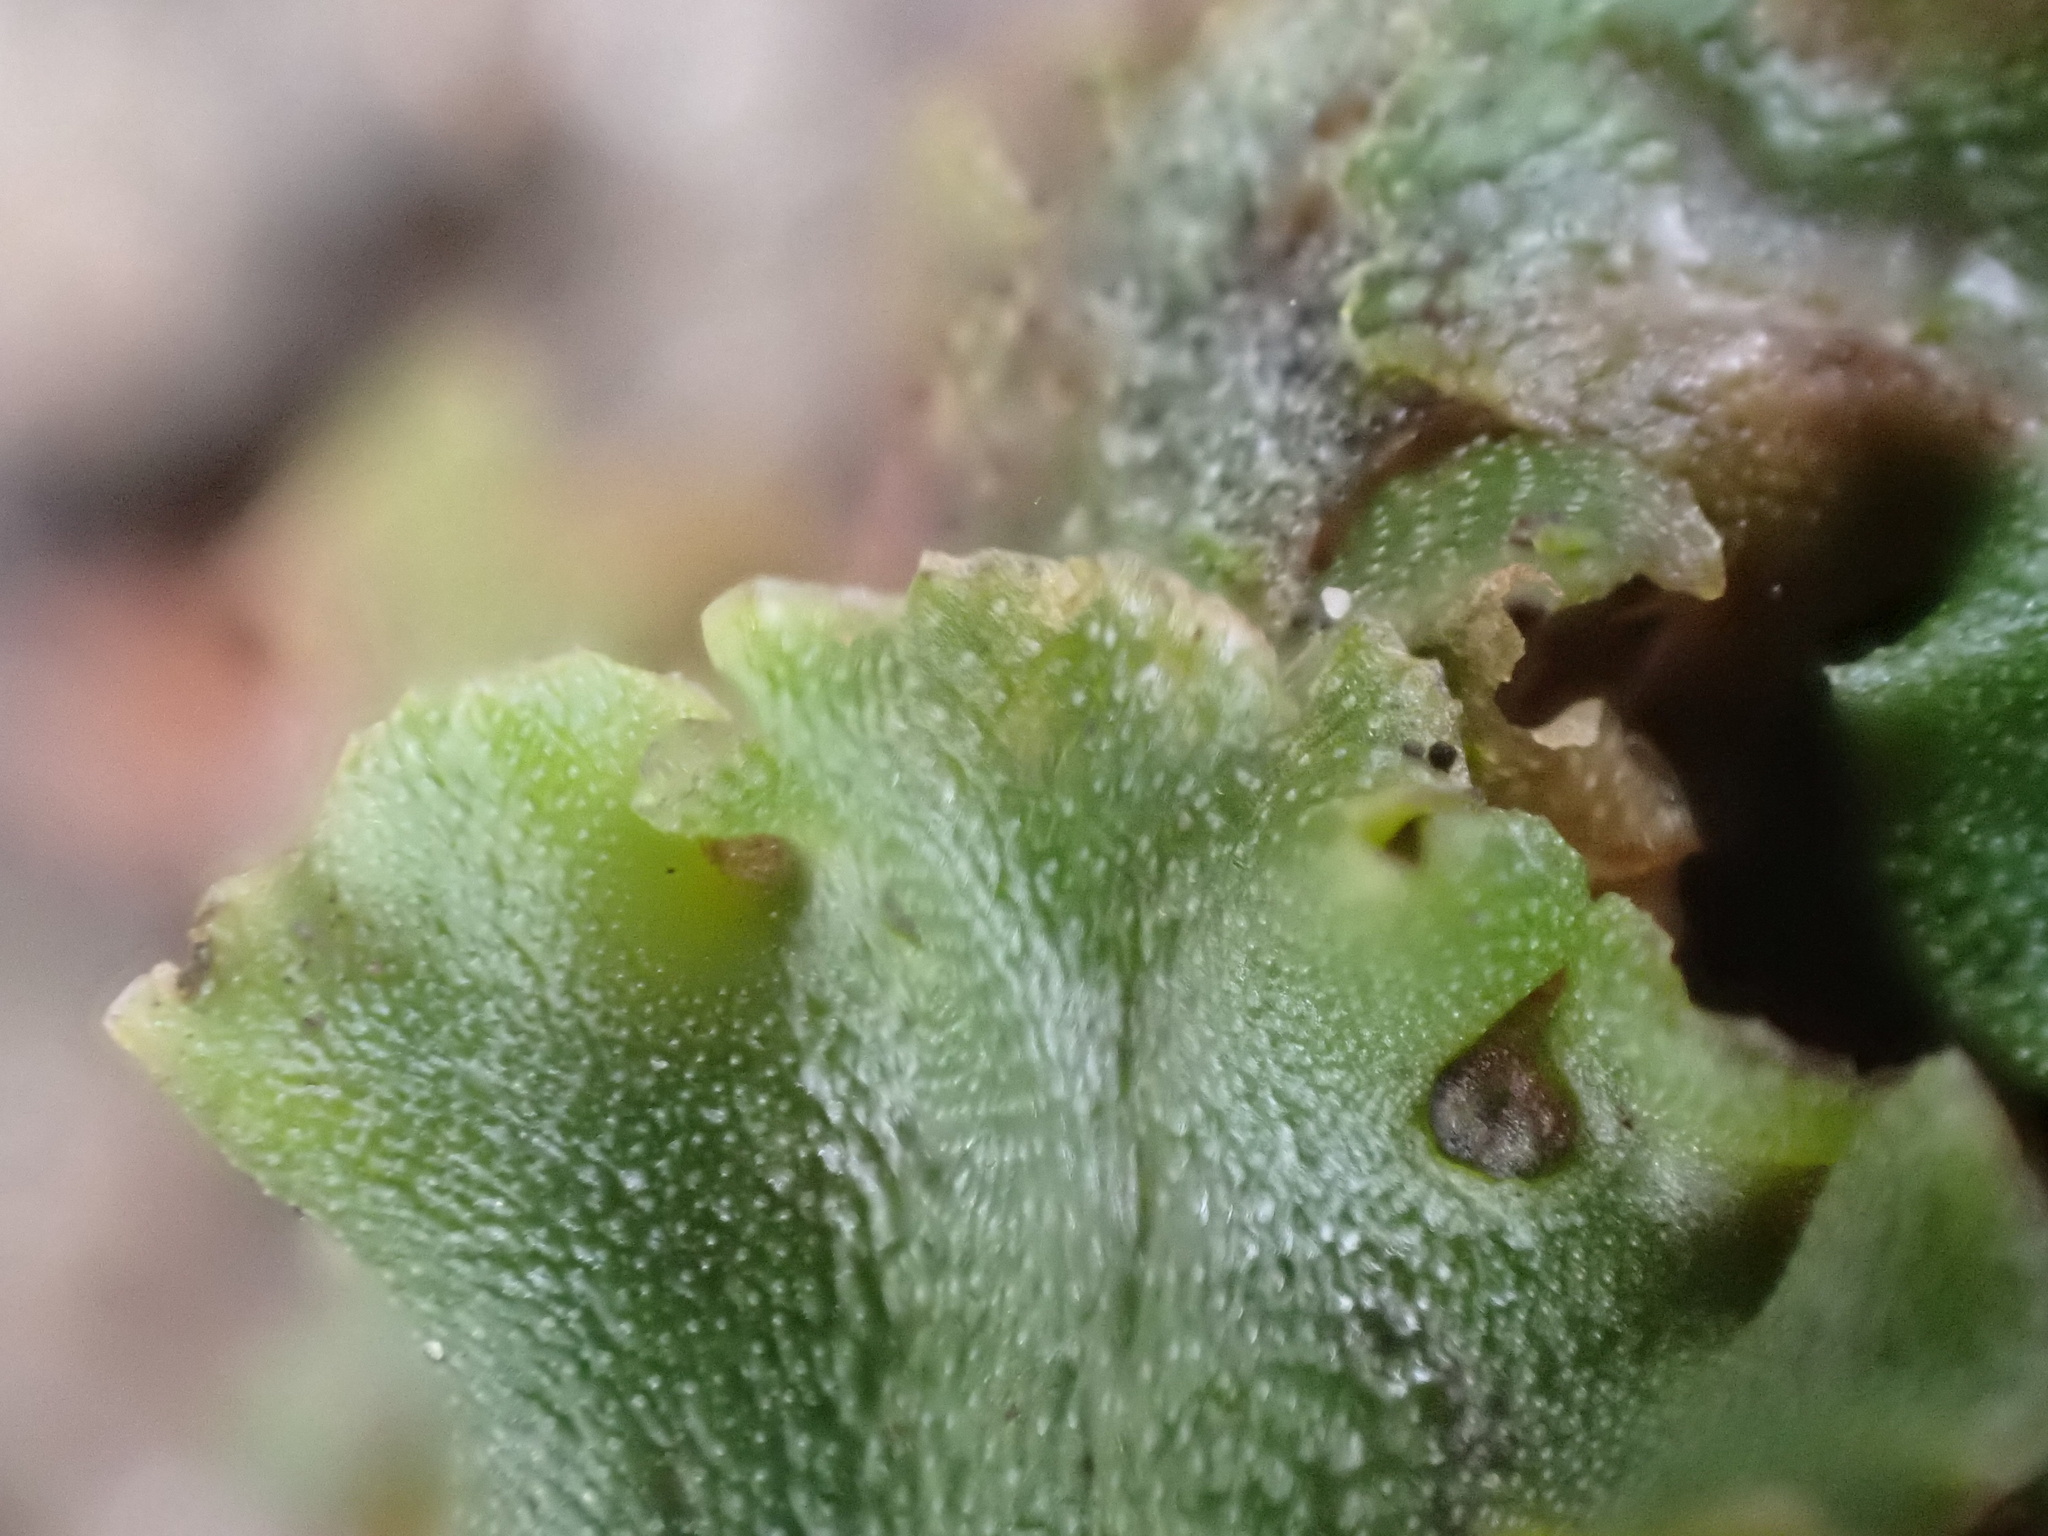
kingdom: Plantae
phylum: Marchantiophyta
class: Marchantiopsida
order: Marchantiales
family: Marchantiaceae
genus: Marchantia
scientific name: Marchantia polymorpha
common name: Common liverwort
